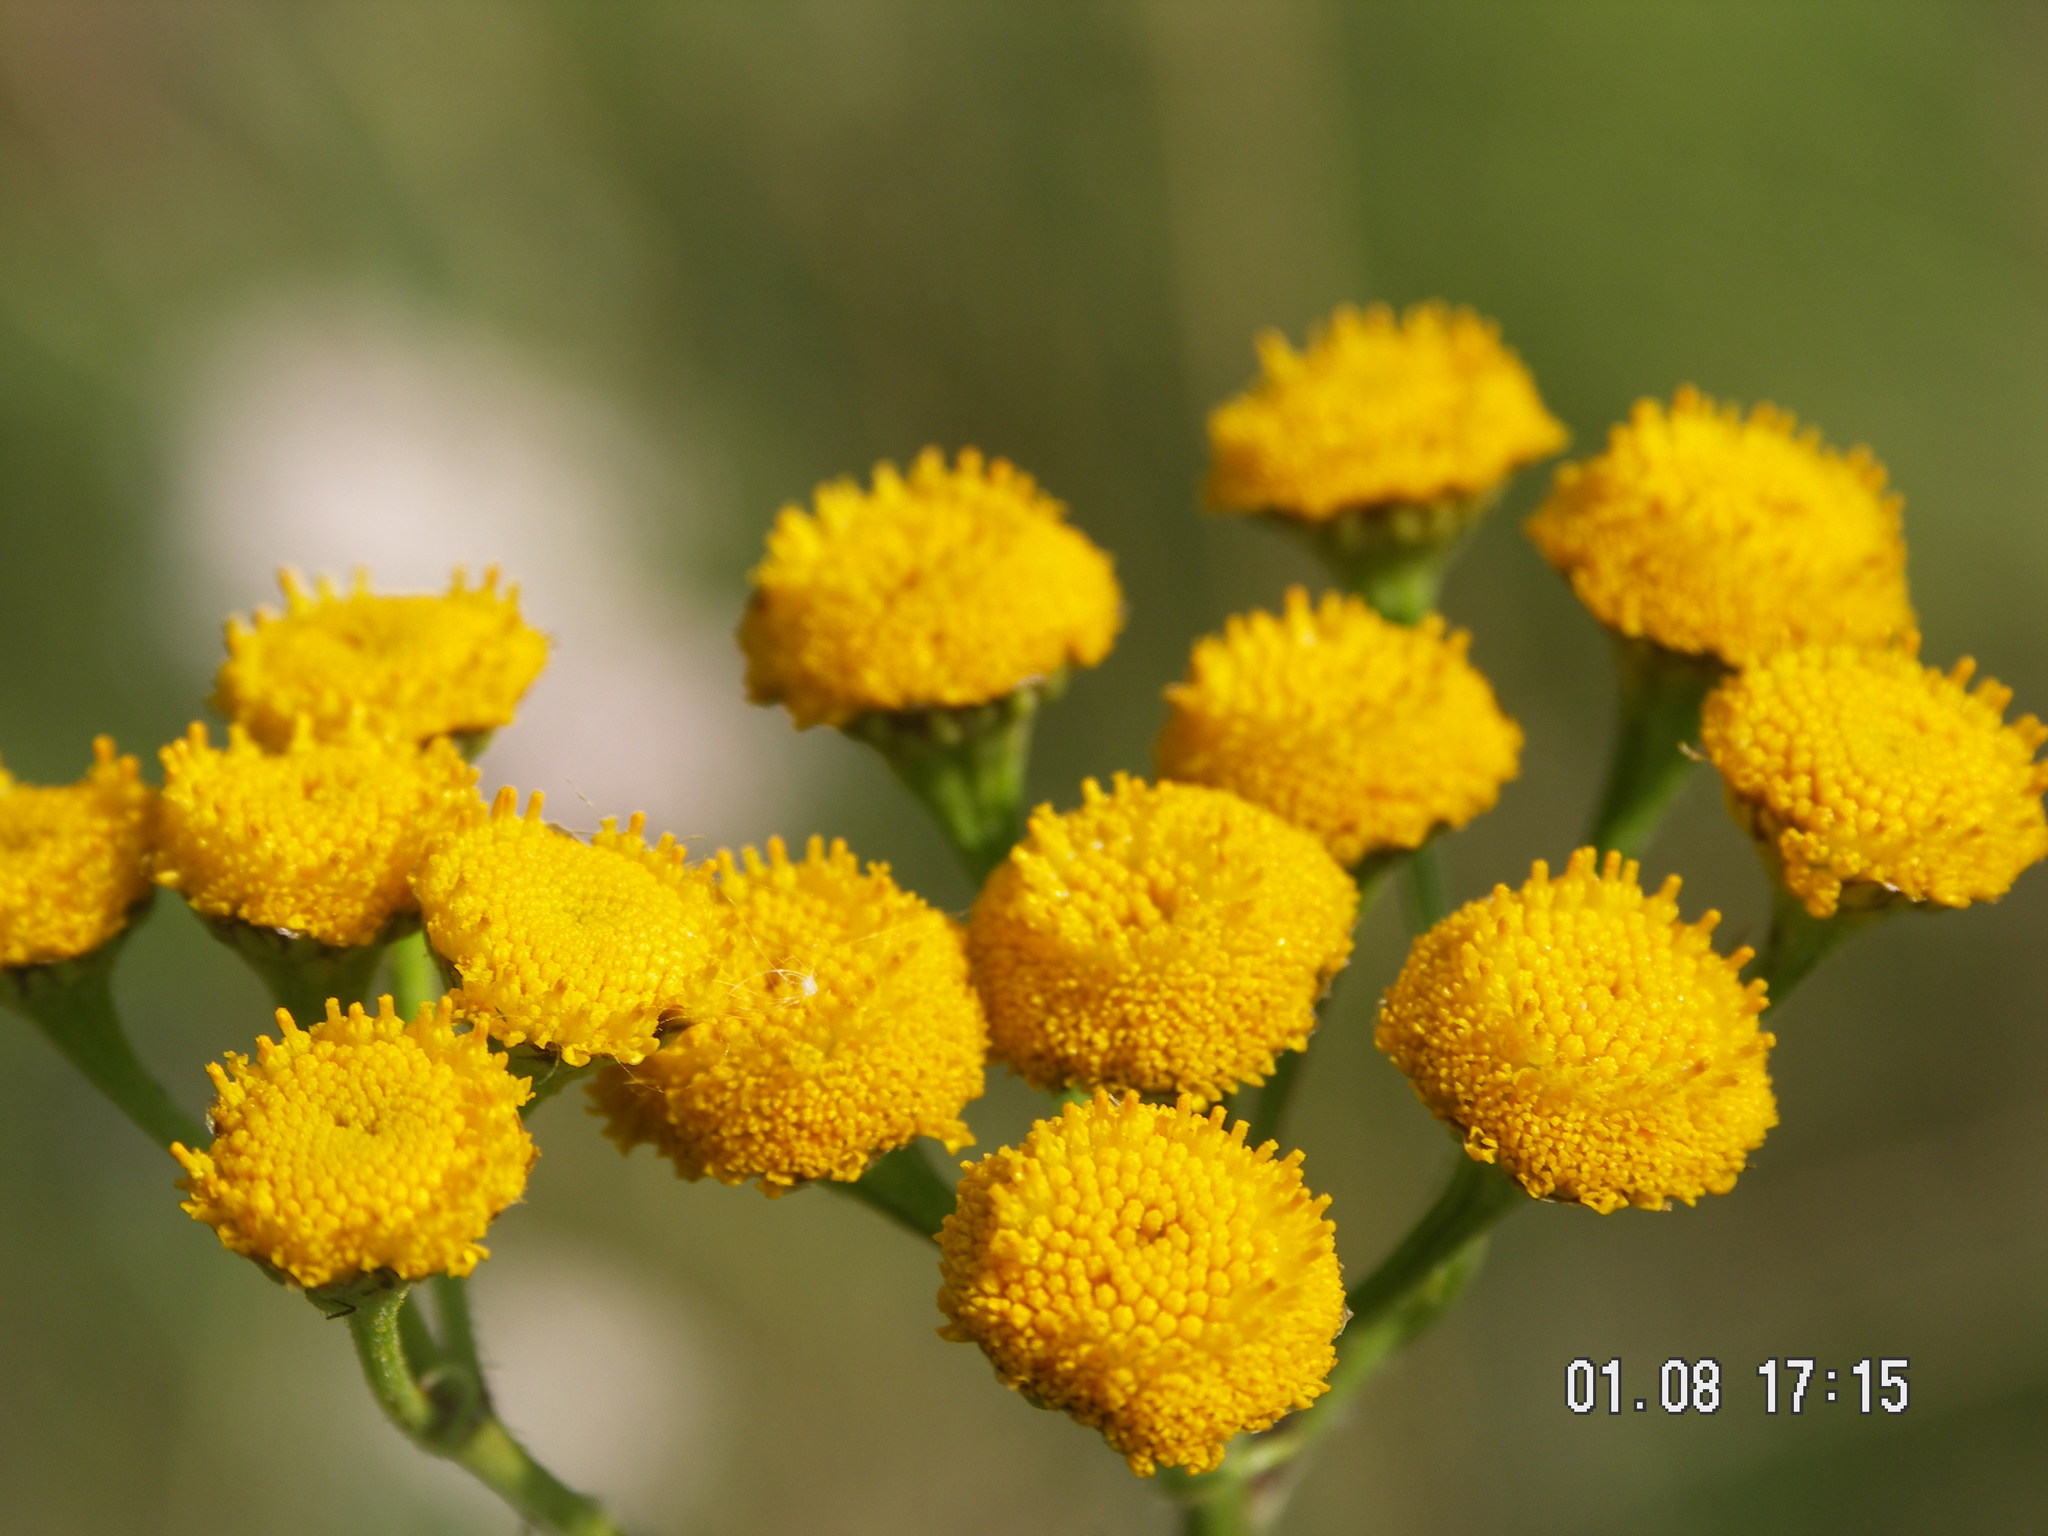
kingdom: Plantae
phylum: Tracheophyta
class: Magnoliopsida
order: Asterales
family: Asteraceae
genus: Tanacetum
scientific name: Tanacetum vulgare
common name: Common tansy
